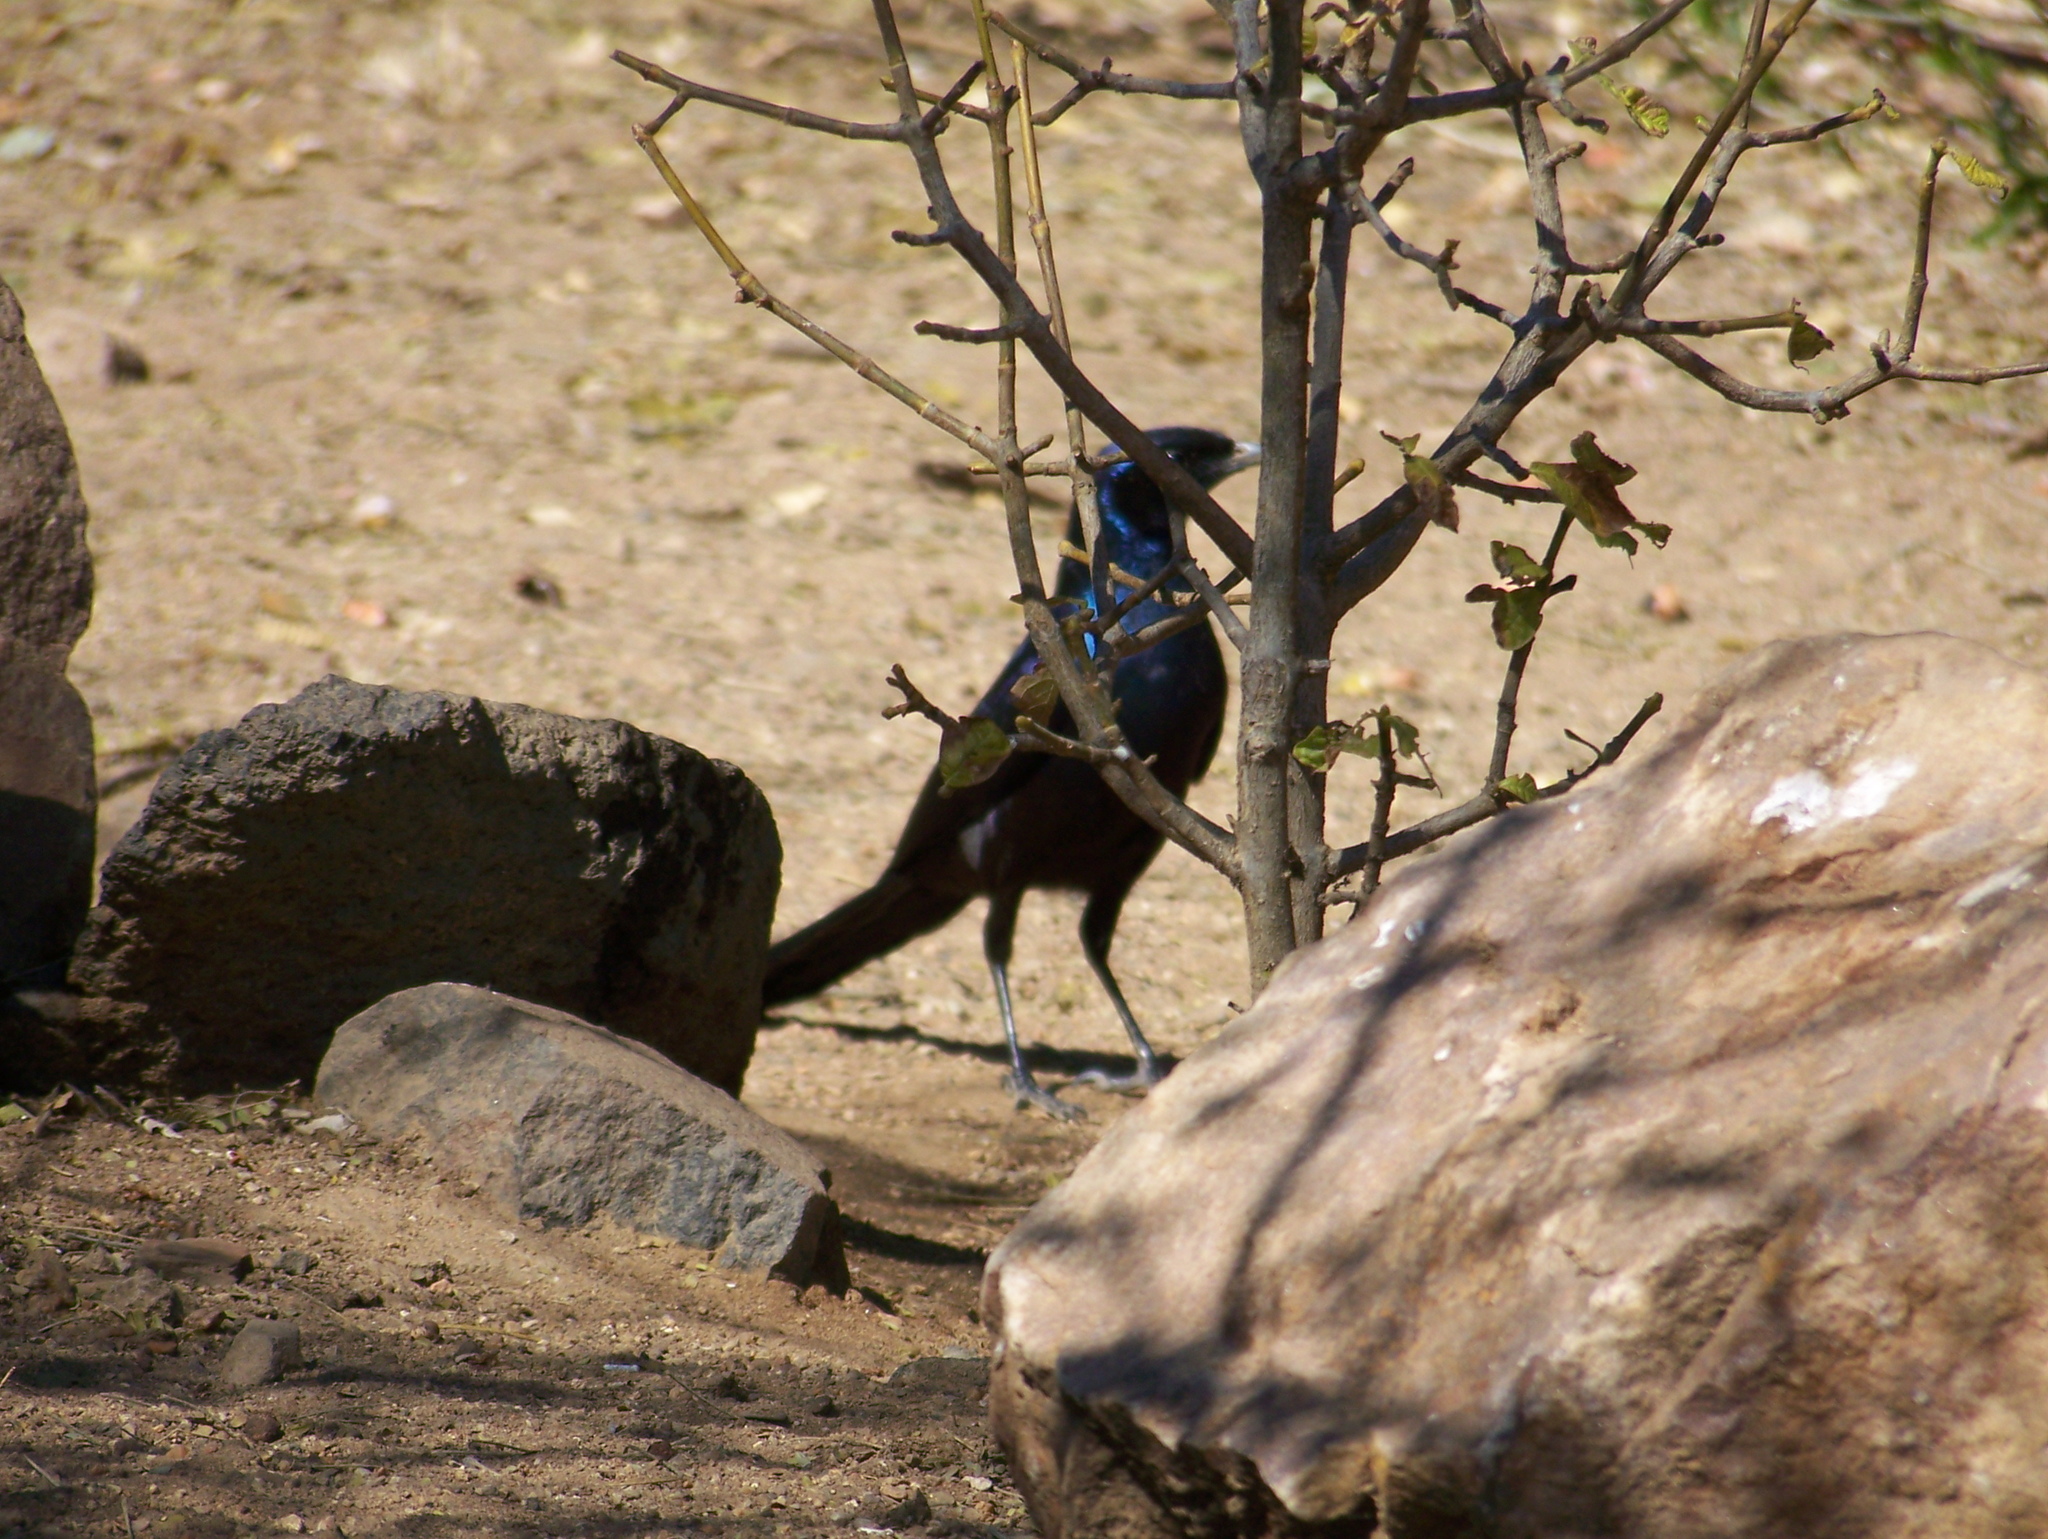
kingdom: Animalia
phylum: Chordata
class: Aves
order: Passeriformes
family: Sturnidae
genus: Lamprotornis
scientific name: Lamprotornis mevesii
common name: Meves's starling
